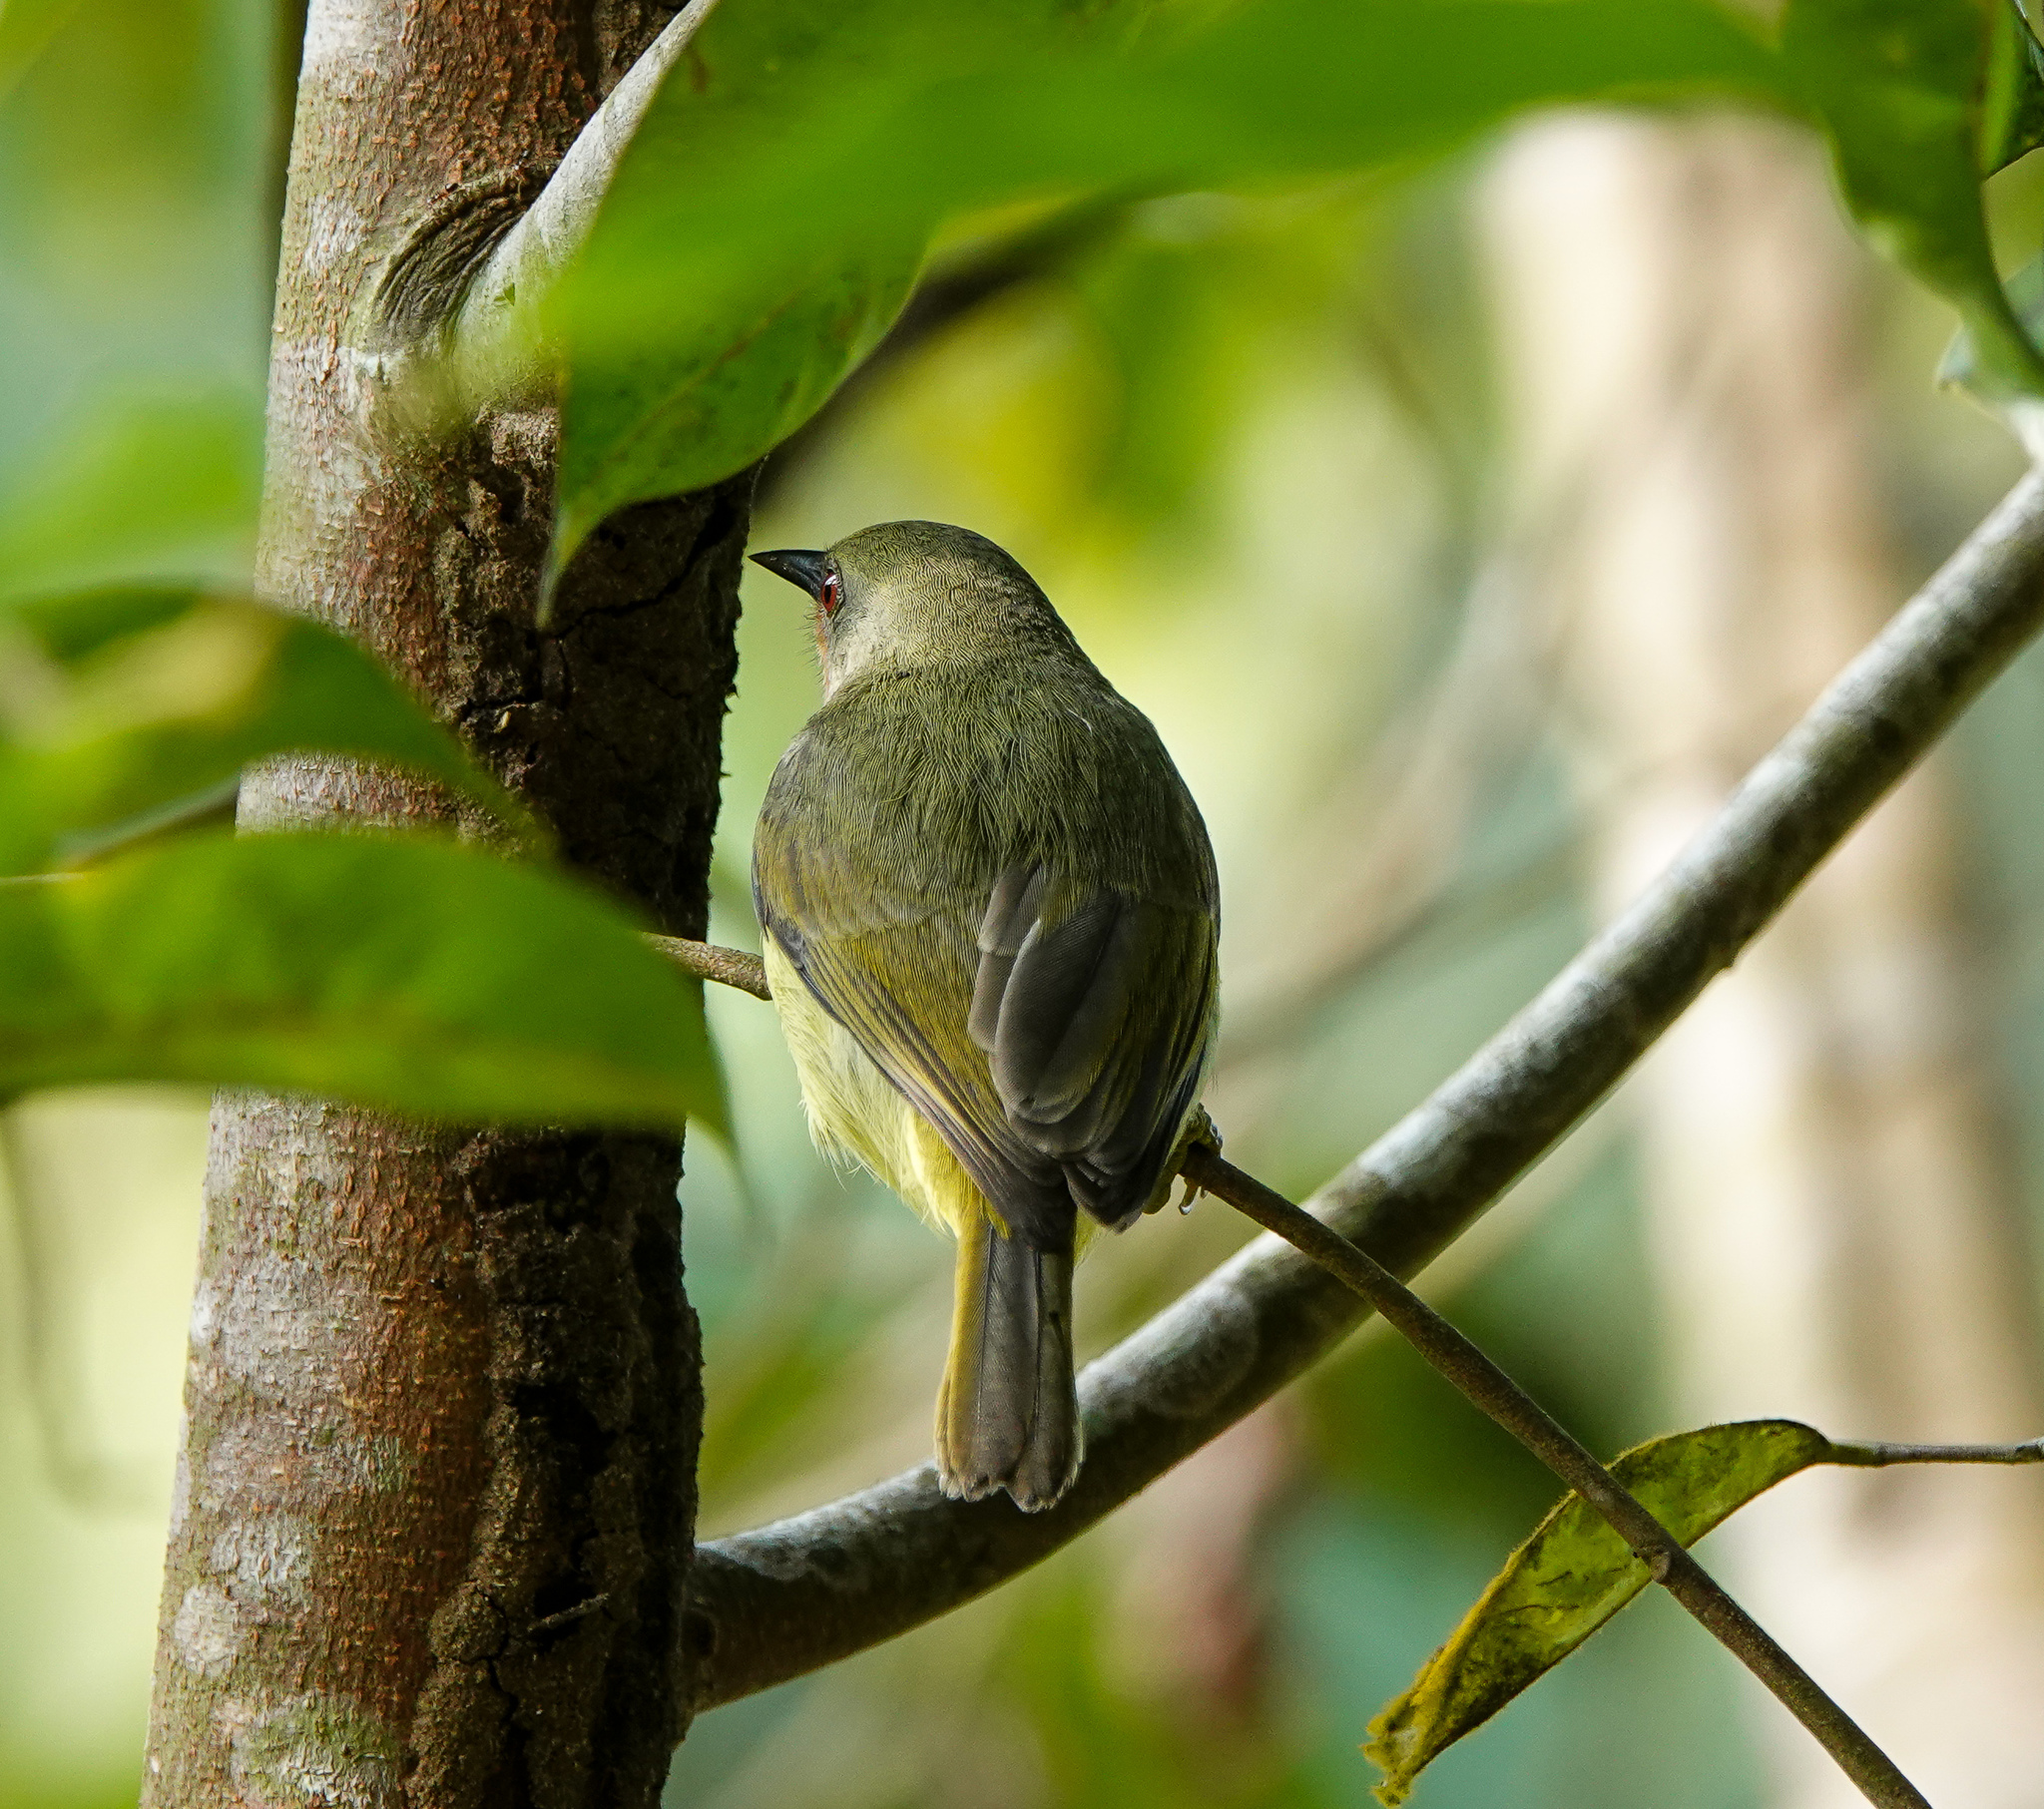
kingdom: Animalia
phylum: Chordata
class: Aves
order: Passeriformes
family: Nectariniidae
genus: Chalcoparia
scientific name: Chalcoparia singalensis
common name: Ruby-cheeked sunbird
